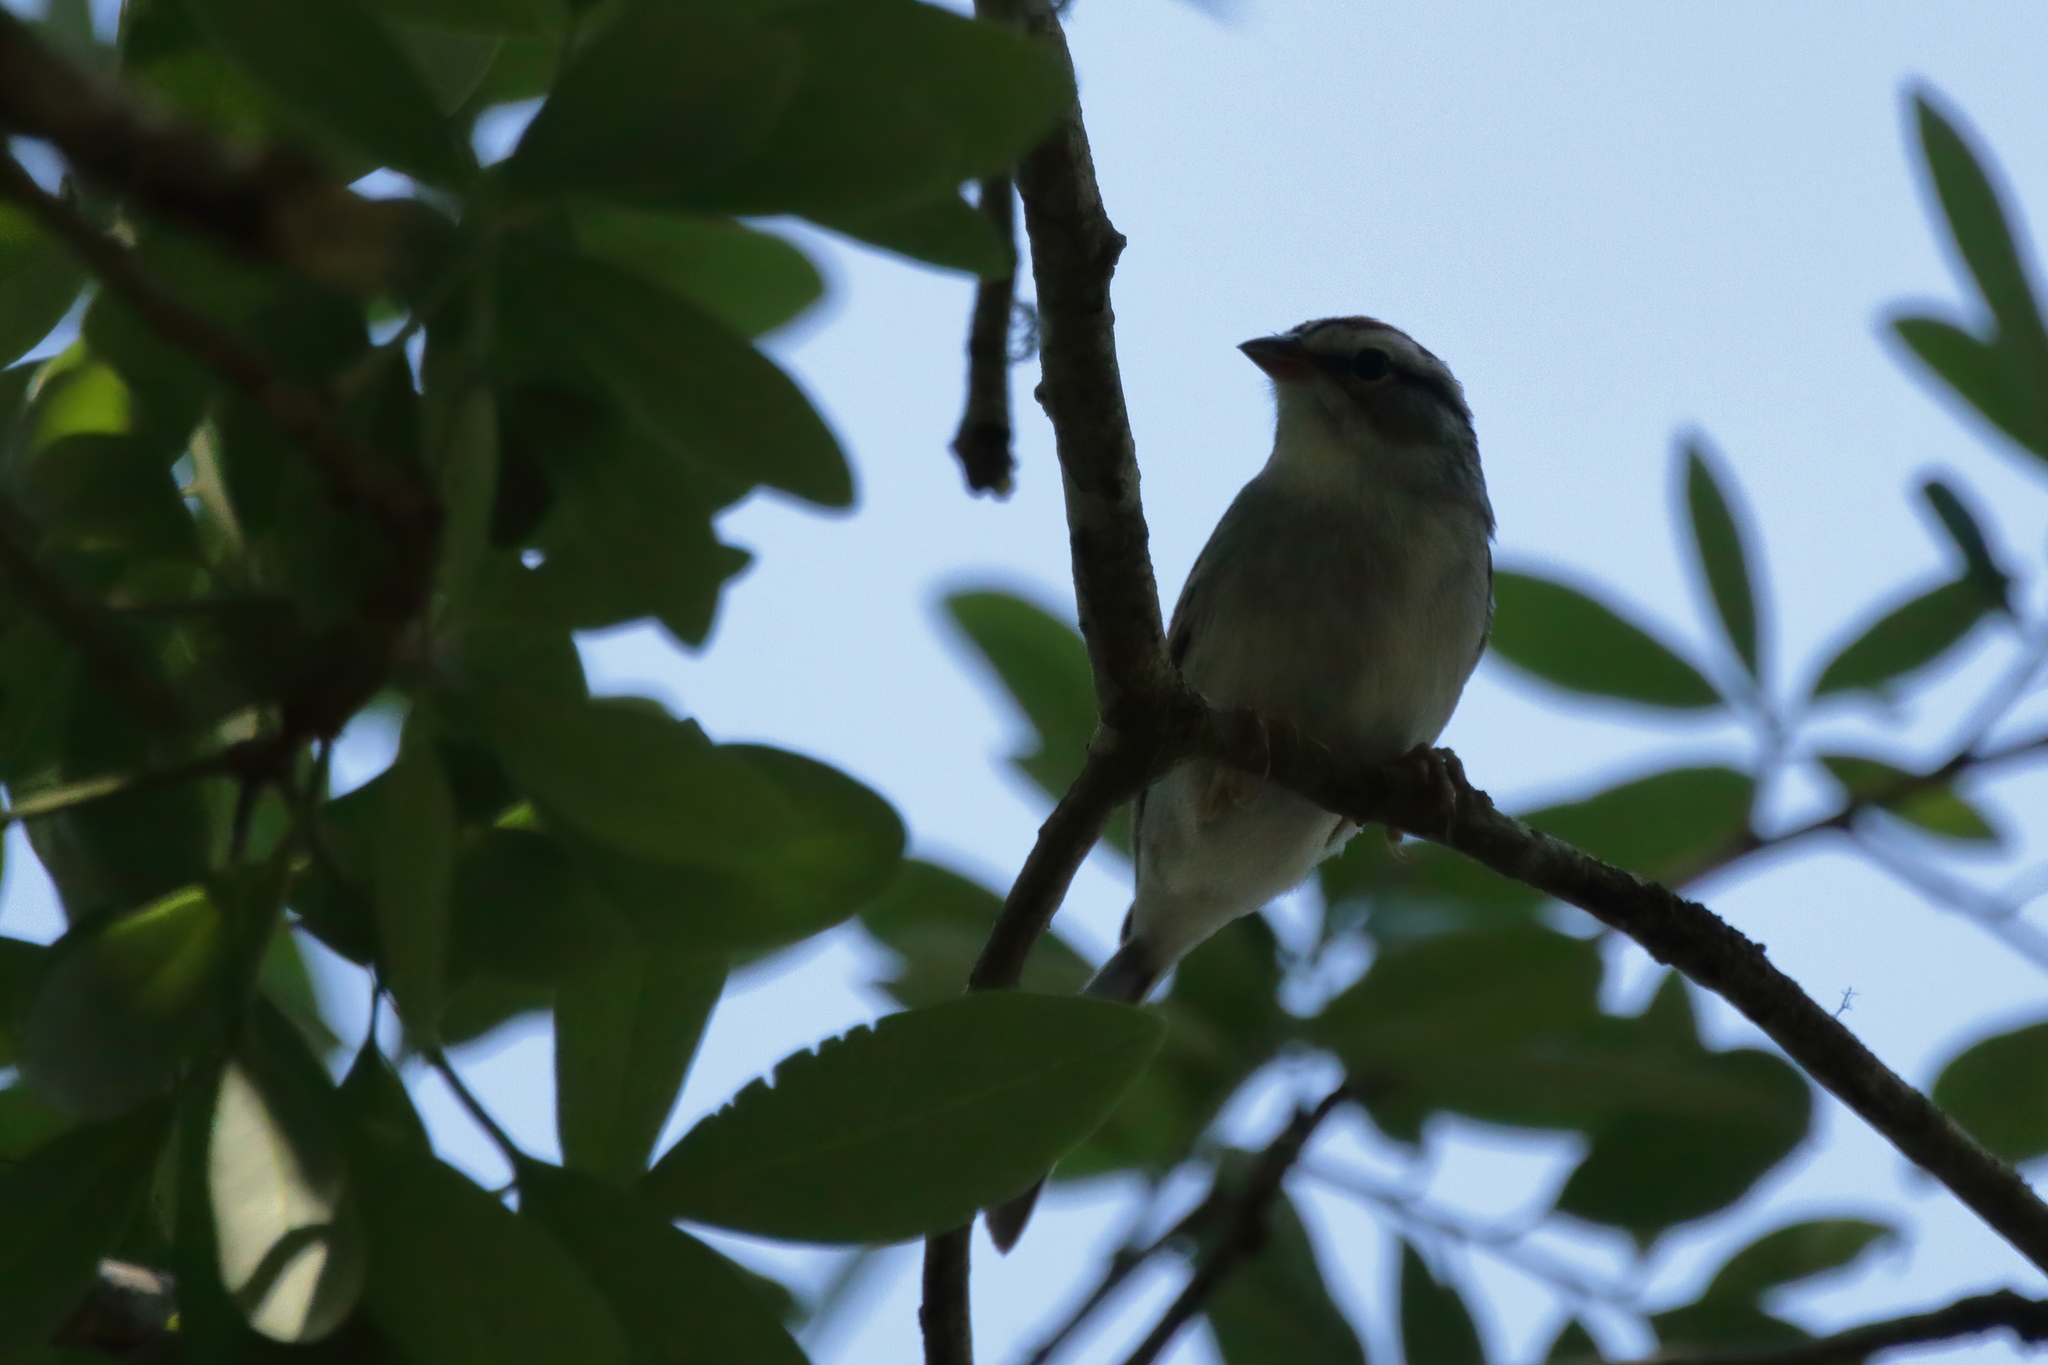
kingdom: Animalia
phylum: Chordata
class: Aves
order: Passeriformes
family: Passerellidae
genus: Spizella
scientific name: Spizella passerina
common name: Chipping sparrow
